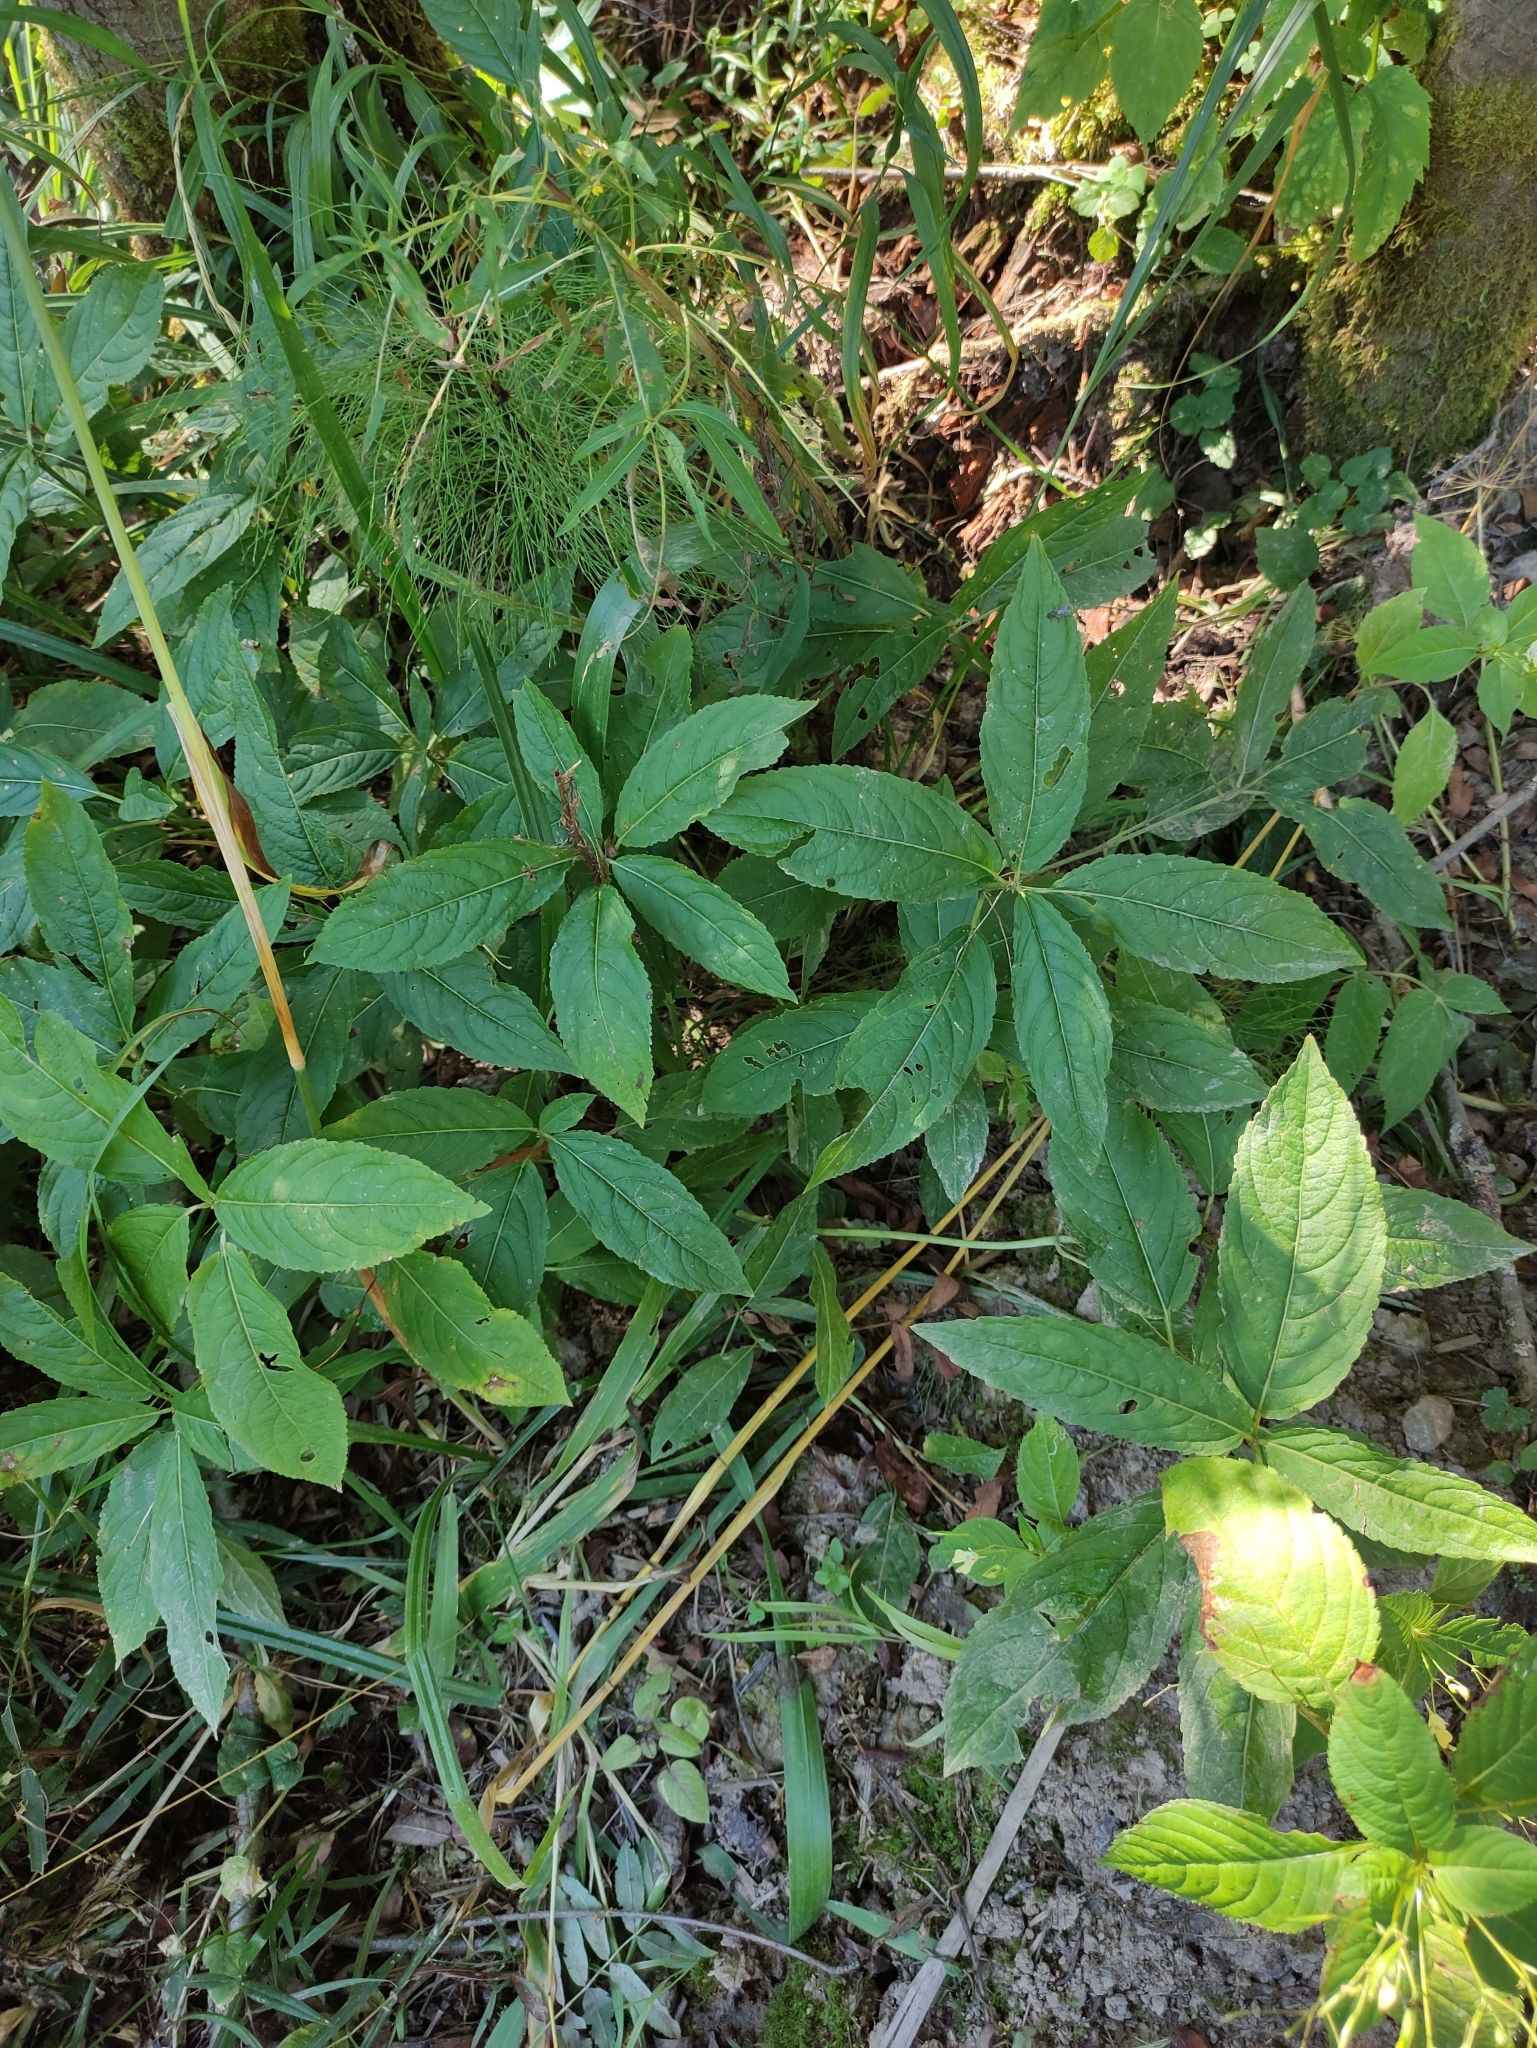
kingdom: Plantae
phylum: Tracheophyta
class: Magnoliopsida
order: Malpighiales
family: Euphorbiaceae
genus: Mercurialis
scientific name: Mercurialis perennis
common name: Dog mercury
